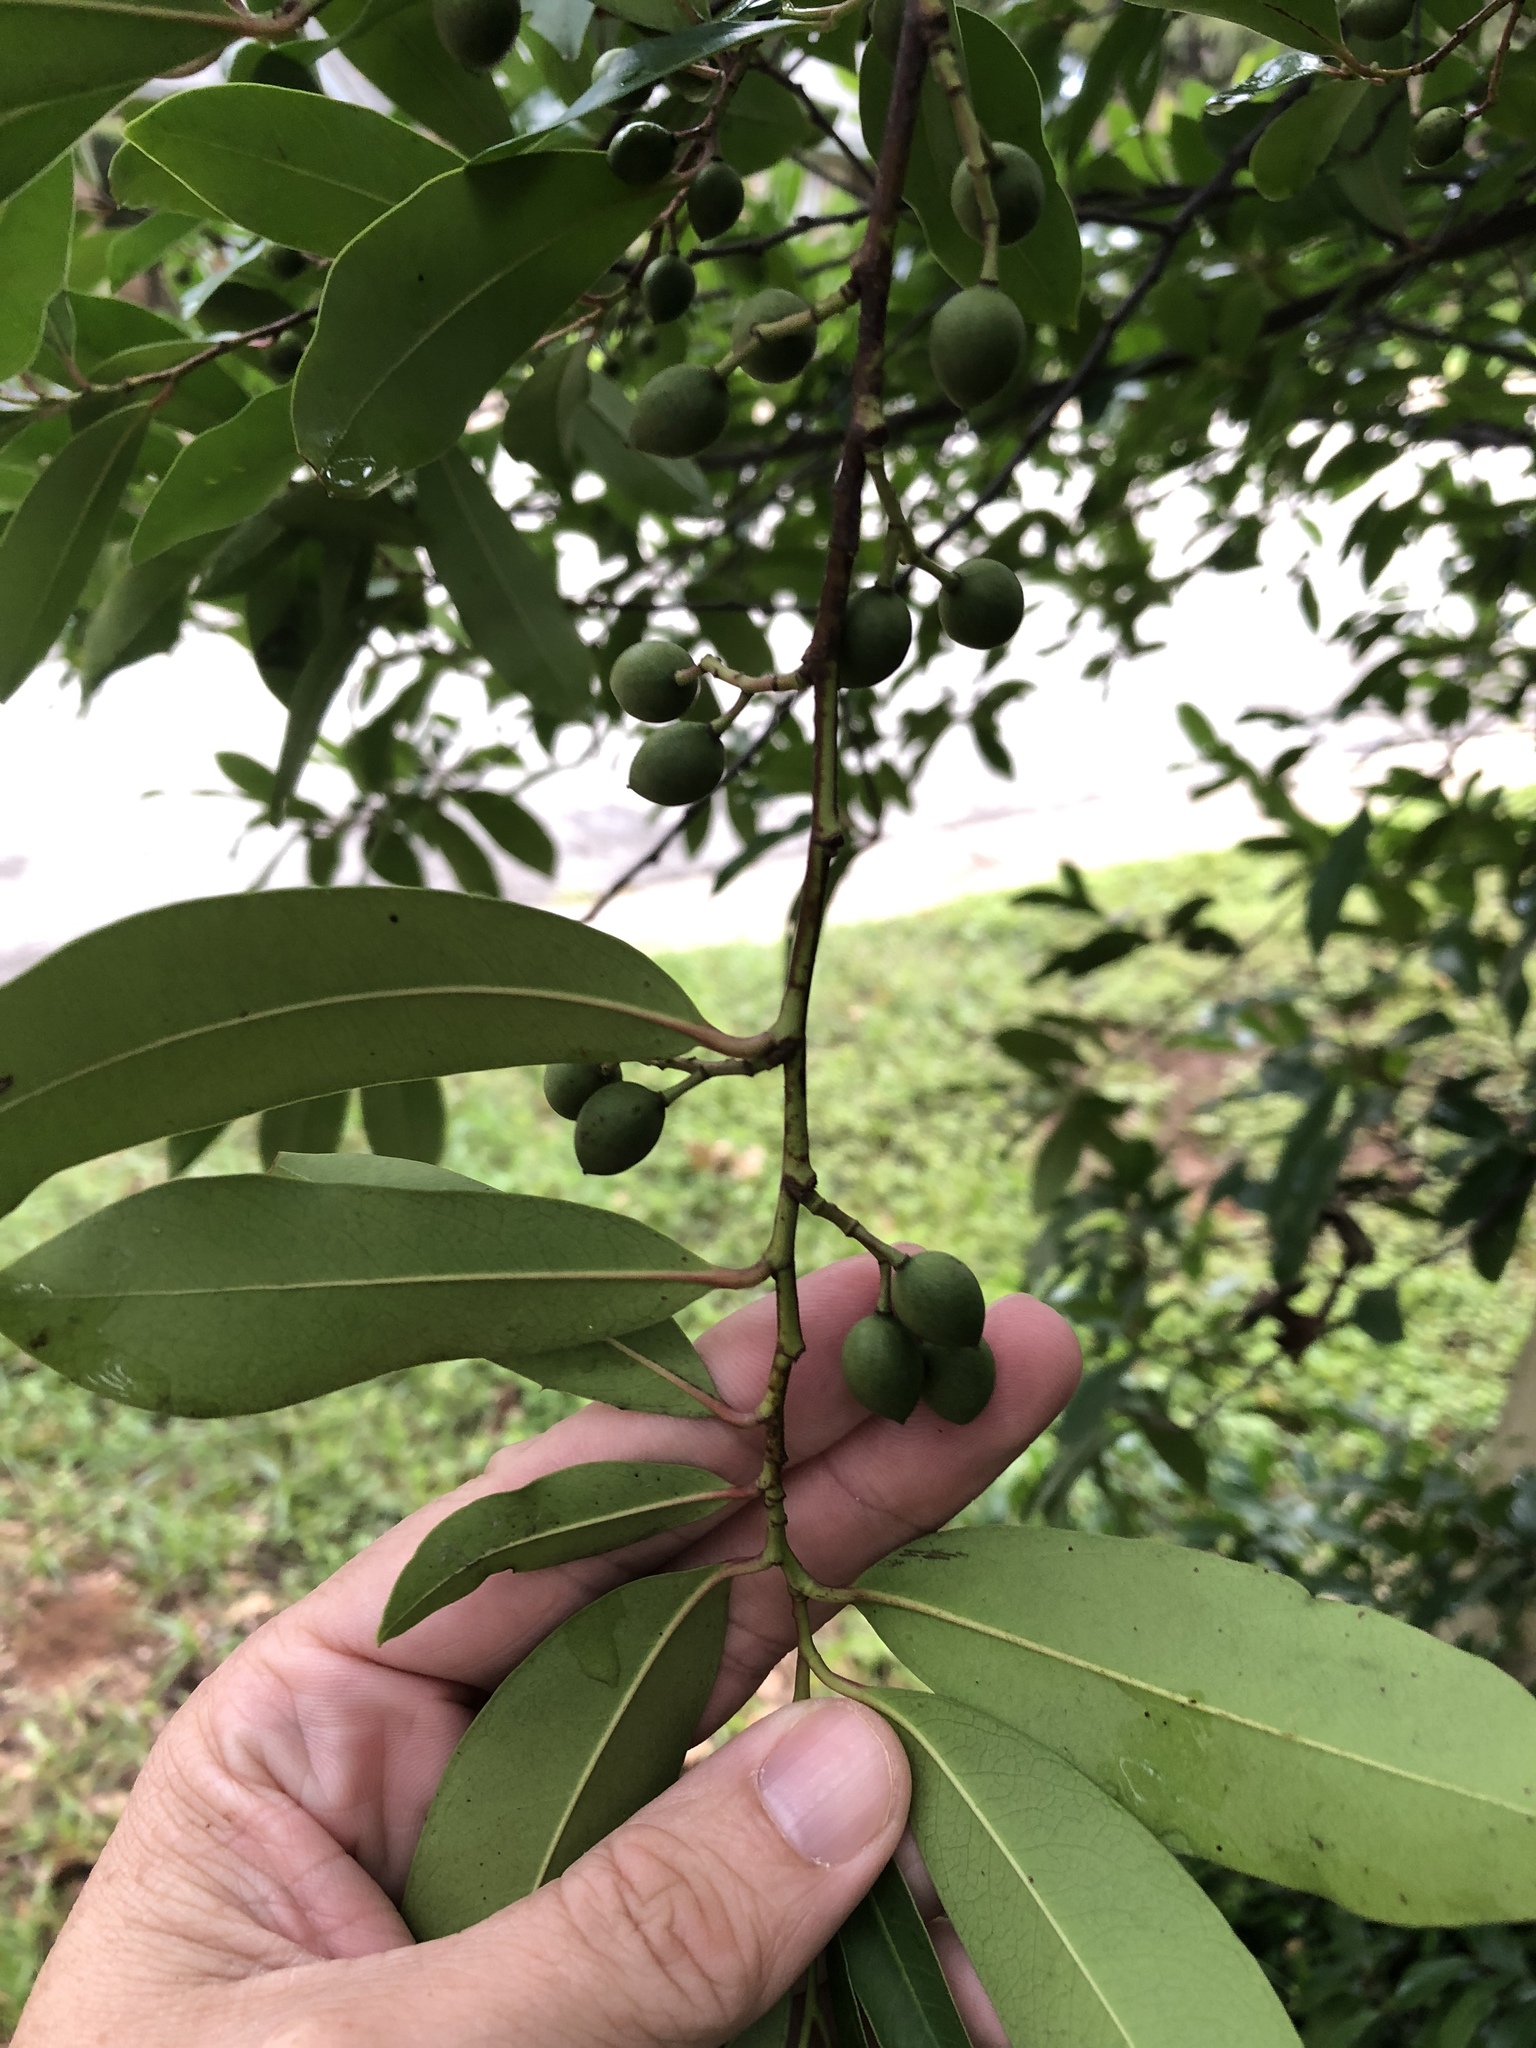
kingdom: Plantae
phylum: Tracheophyta
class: Magnoliopsida
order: Rosales
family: Rosaceae
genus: Prunus
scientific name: Prunus caroliniana
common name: Carolina laurel cherry
